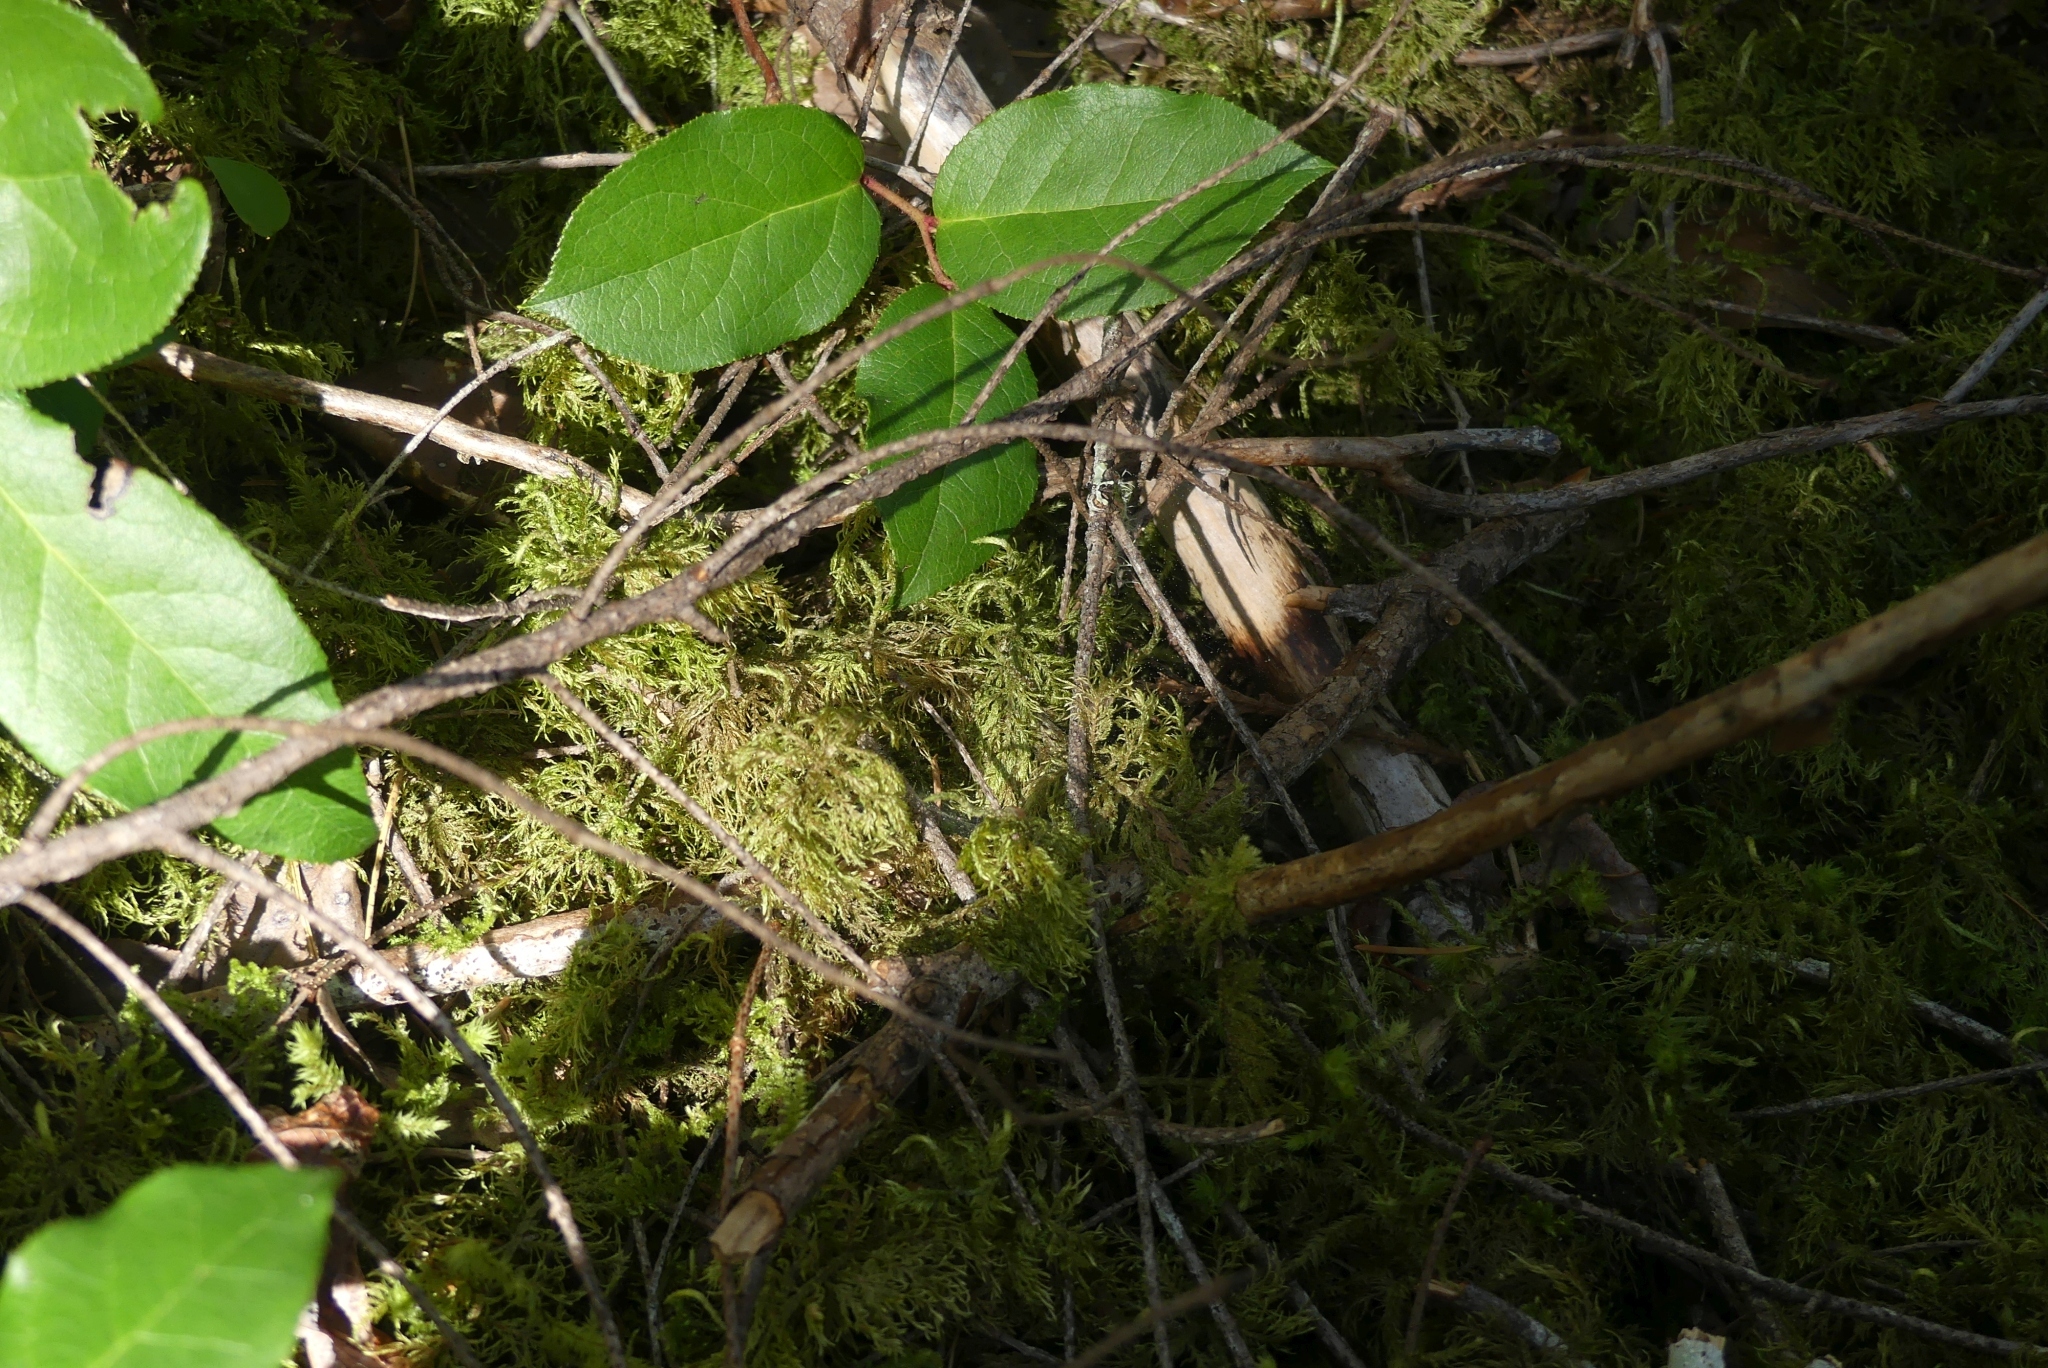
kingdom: Plantae
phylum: Bryophyta
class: Bryopsida
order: Hypnales
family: Hylocomiaceae
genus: Hylocomium
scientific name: Hylocomium splendens
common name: Stairstep moss
